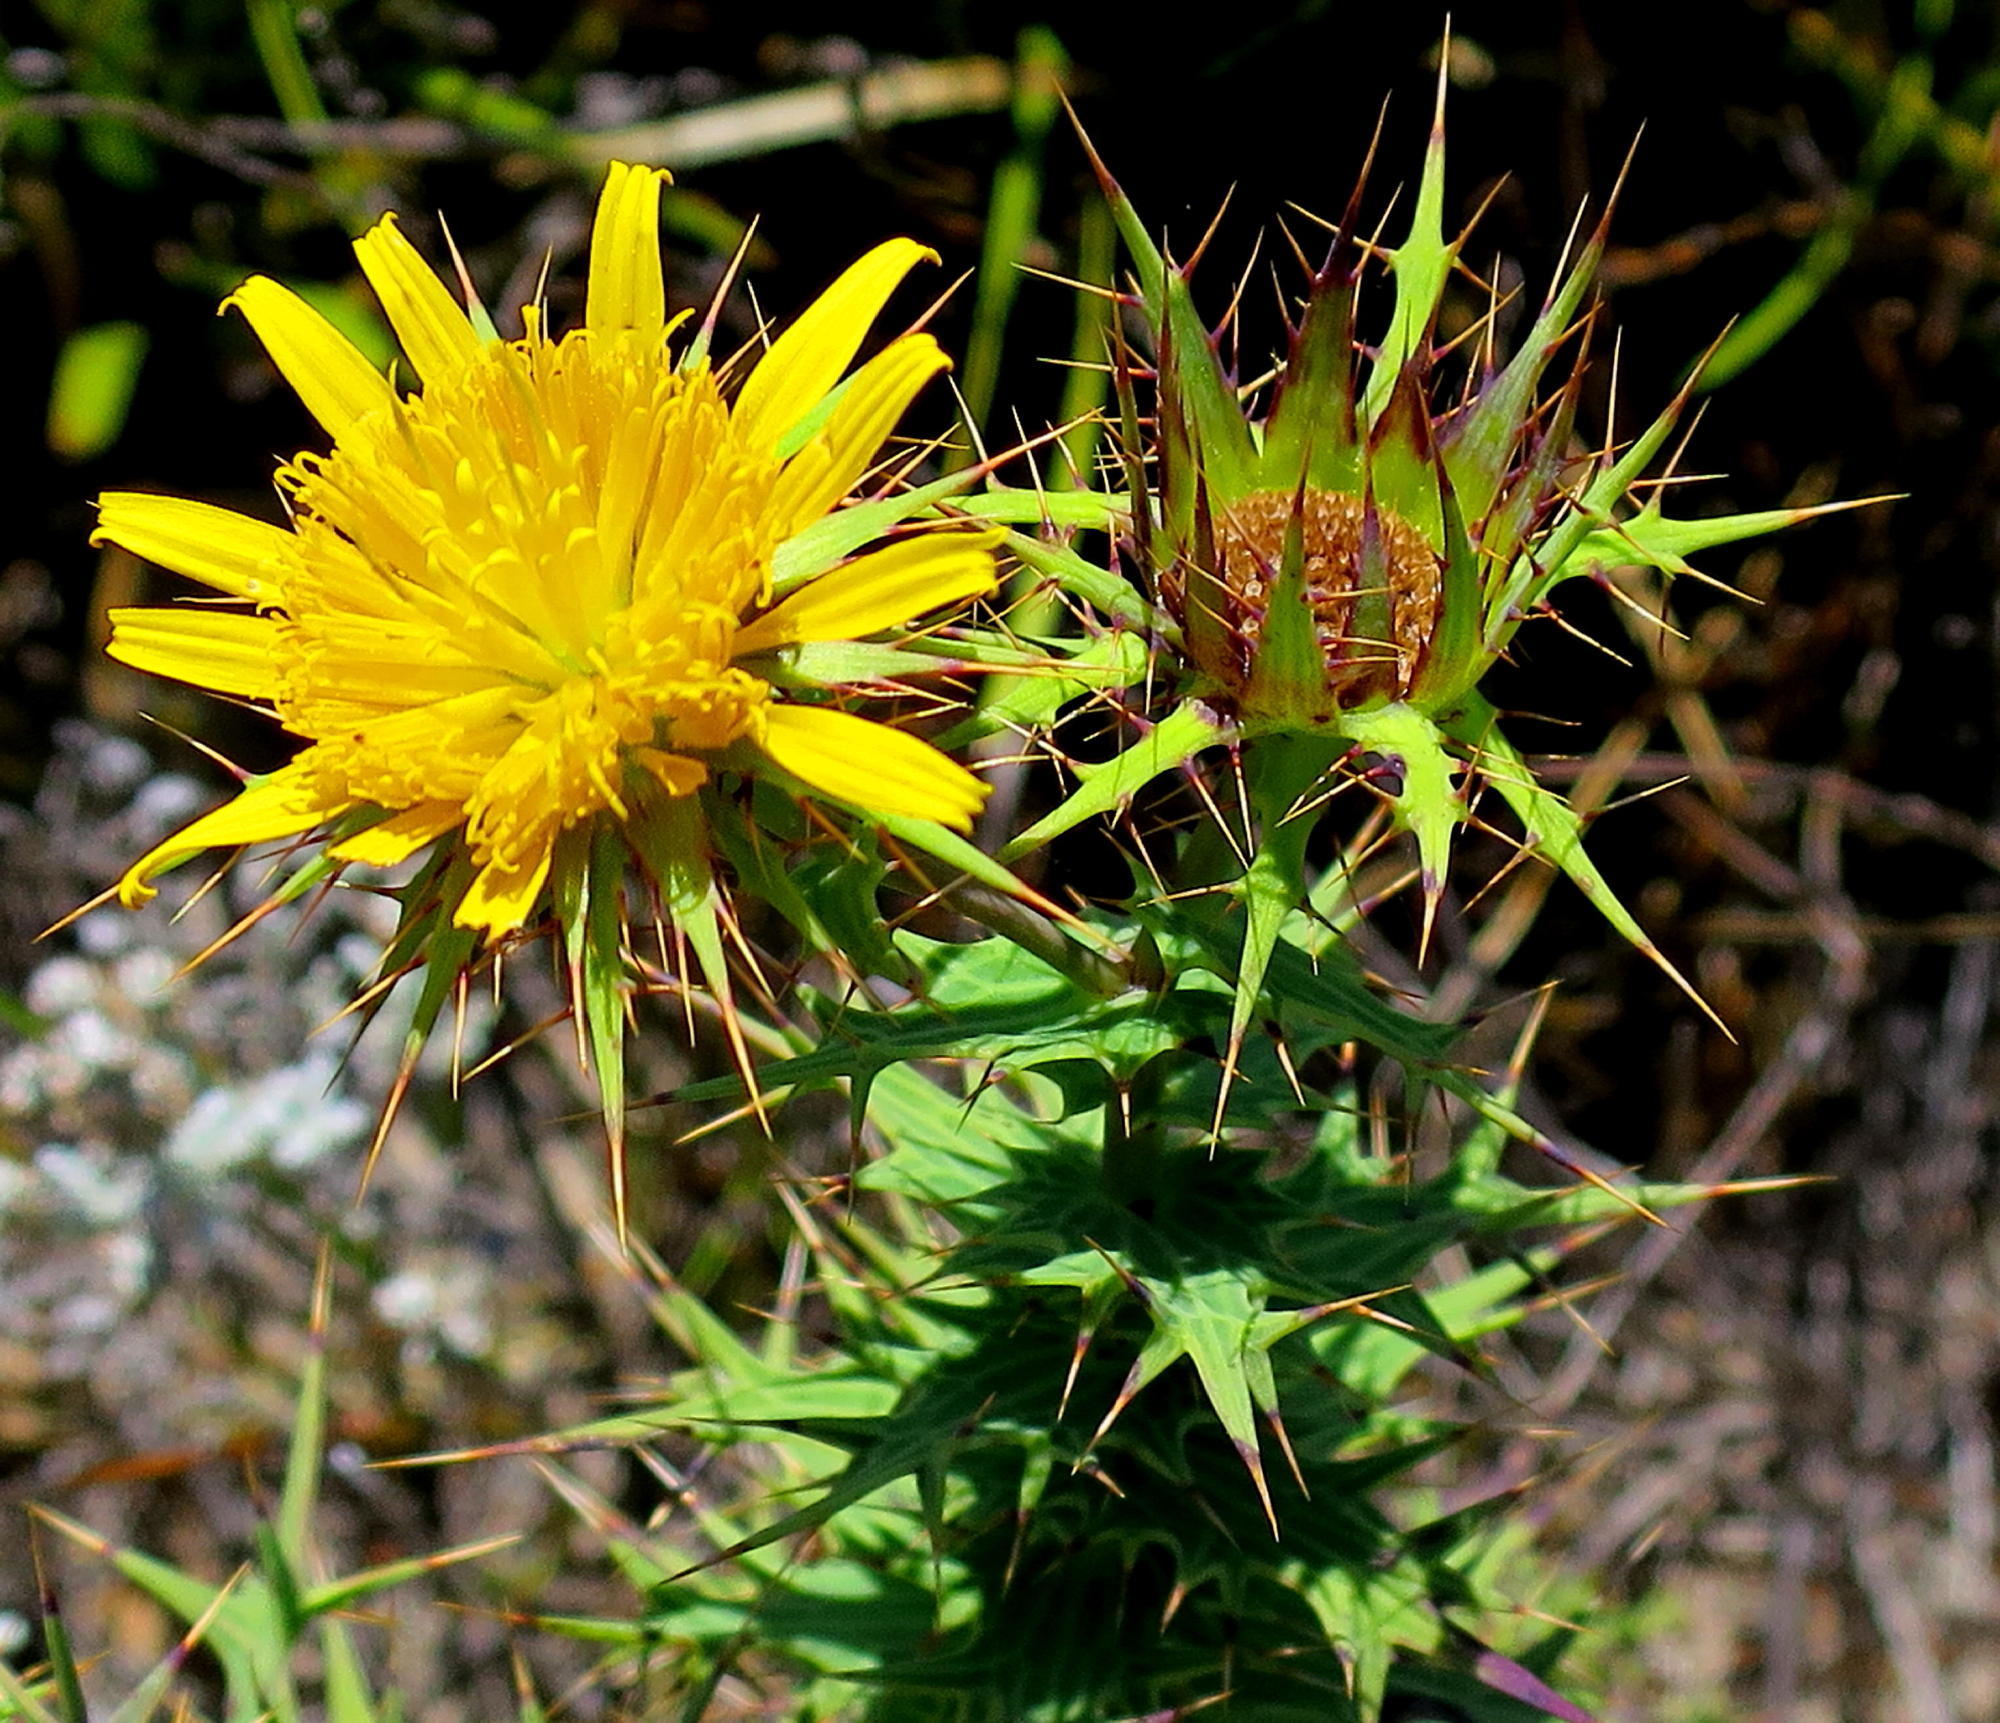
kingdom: Plantae
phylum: Tracheophyta
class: Magnoliopsida
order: Asterales
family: Asteraceae
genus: Berkheya
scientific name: Berkheya cruciata
